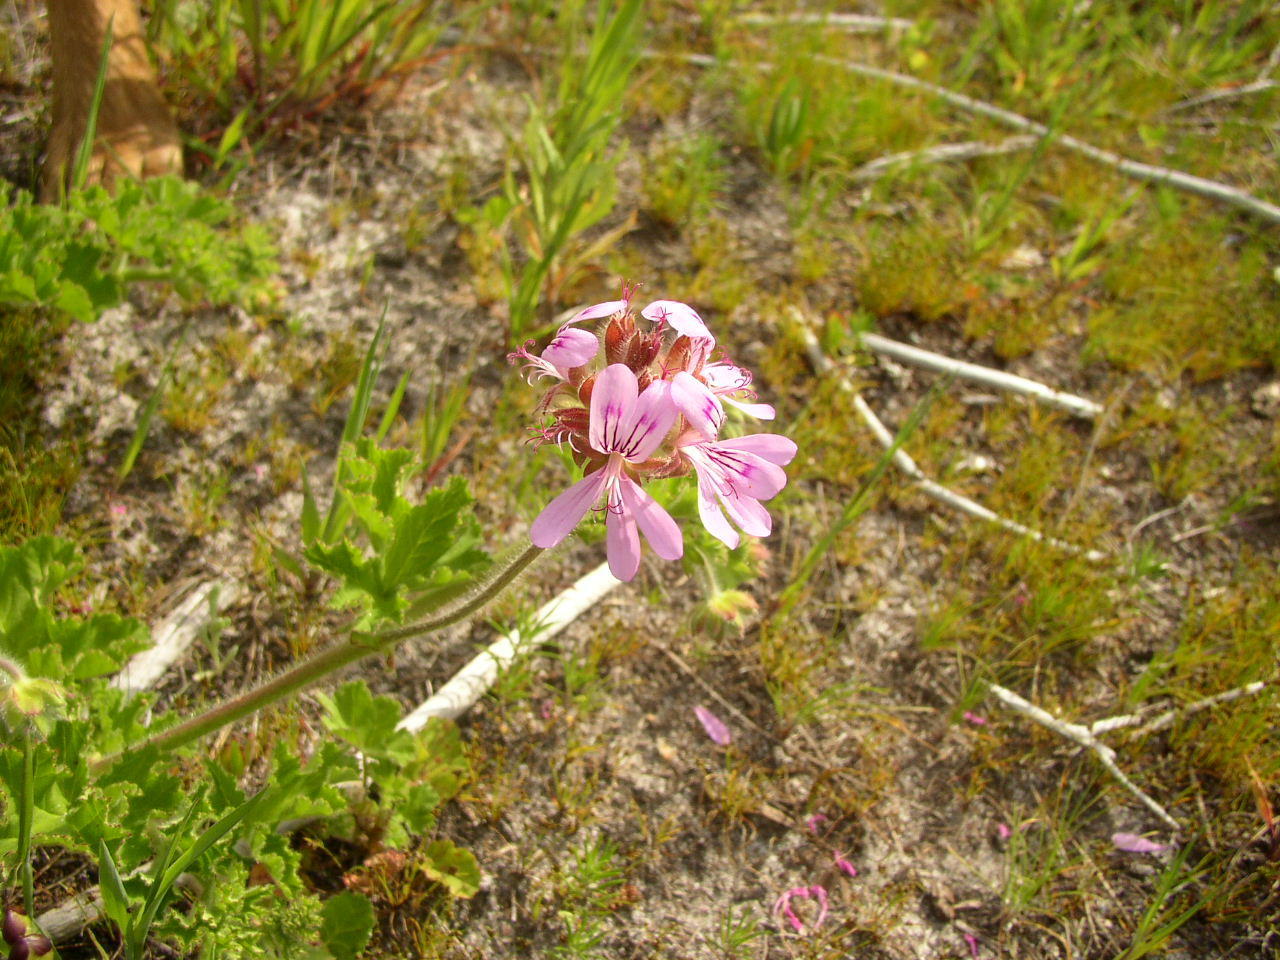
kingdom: Plantae
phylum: Tracheophyta
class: Magnoliopsida
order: Geraniales
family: Geraniaceae
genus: Pelargonium
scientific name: Pelargonium capitatum
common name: Rose scented geranium
